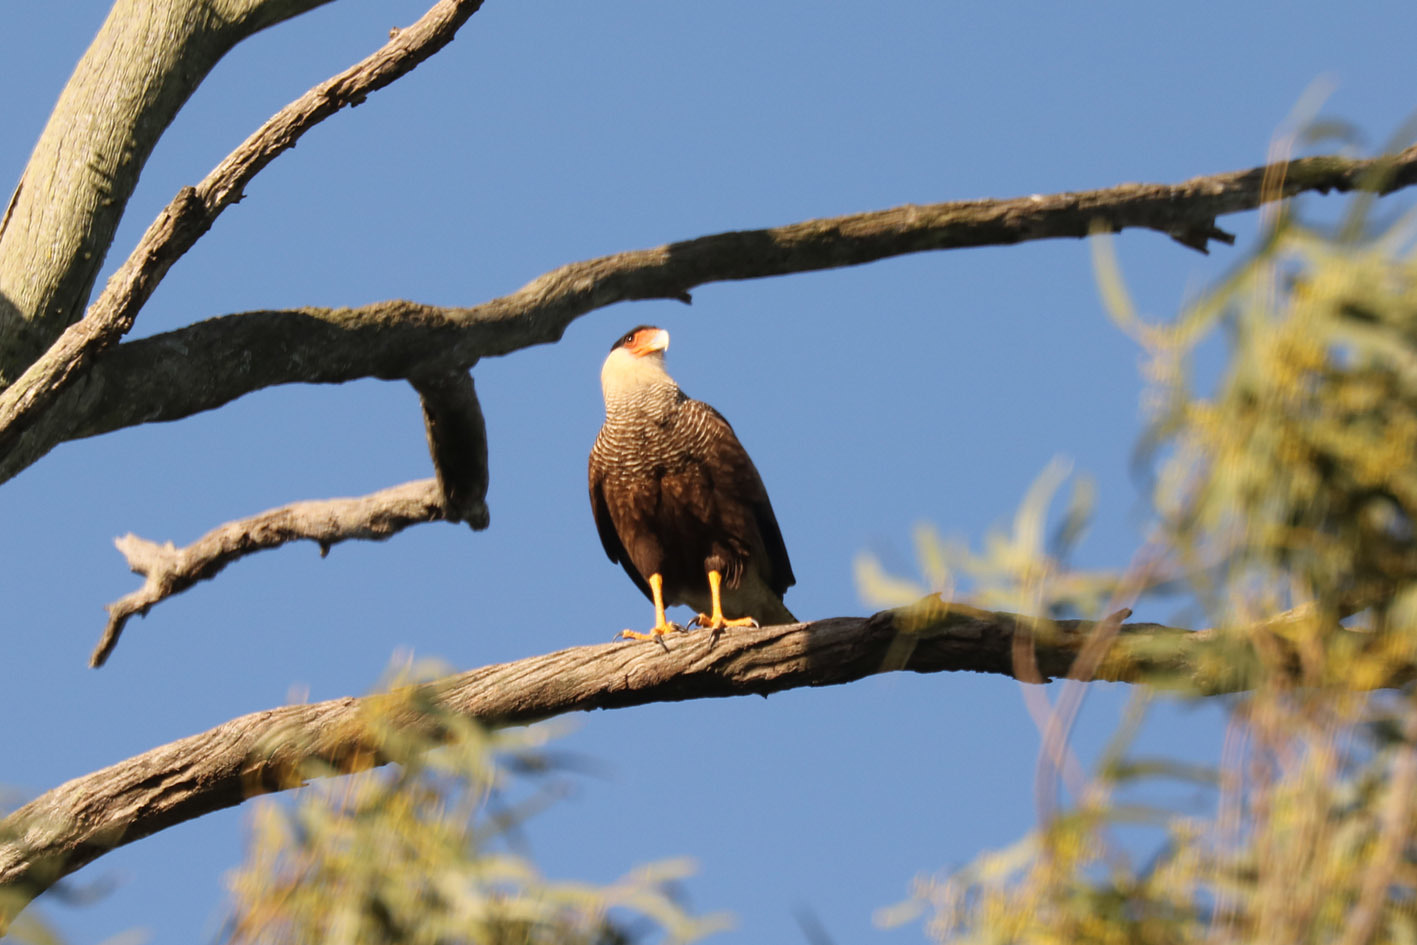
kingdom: Animalia
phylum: Chordata
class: Aves
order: Falconiformes
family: Falconidae
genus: Caracara
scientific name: Caracara plancus
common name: Southern caracara
